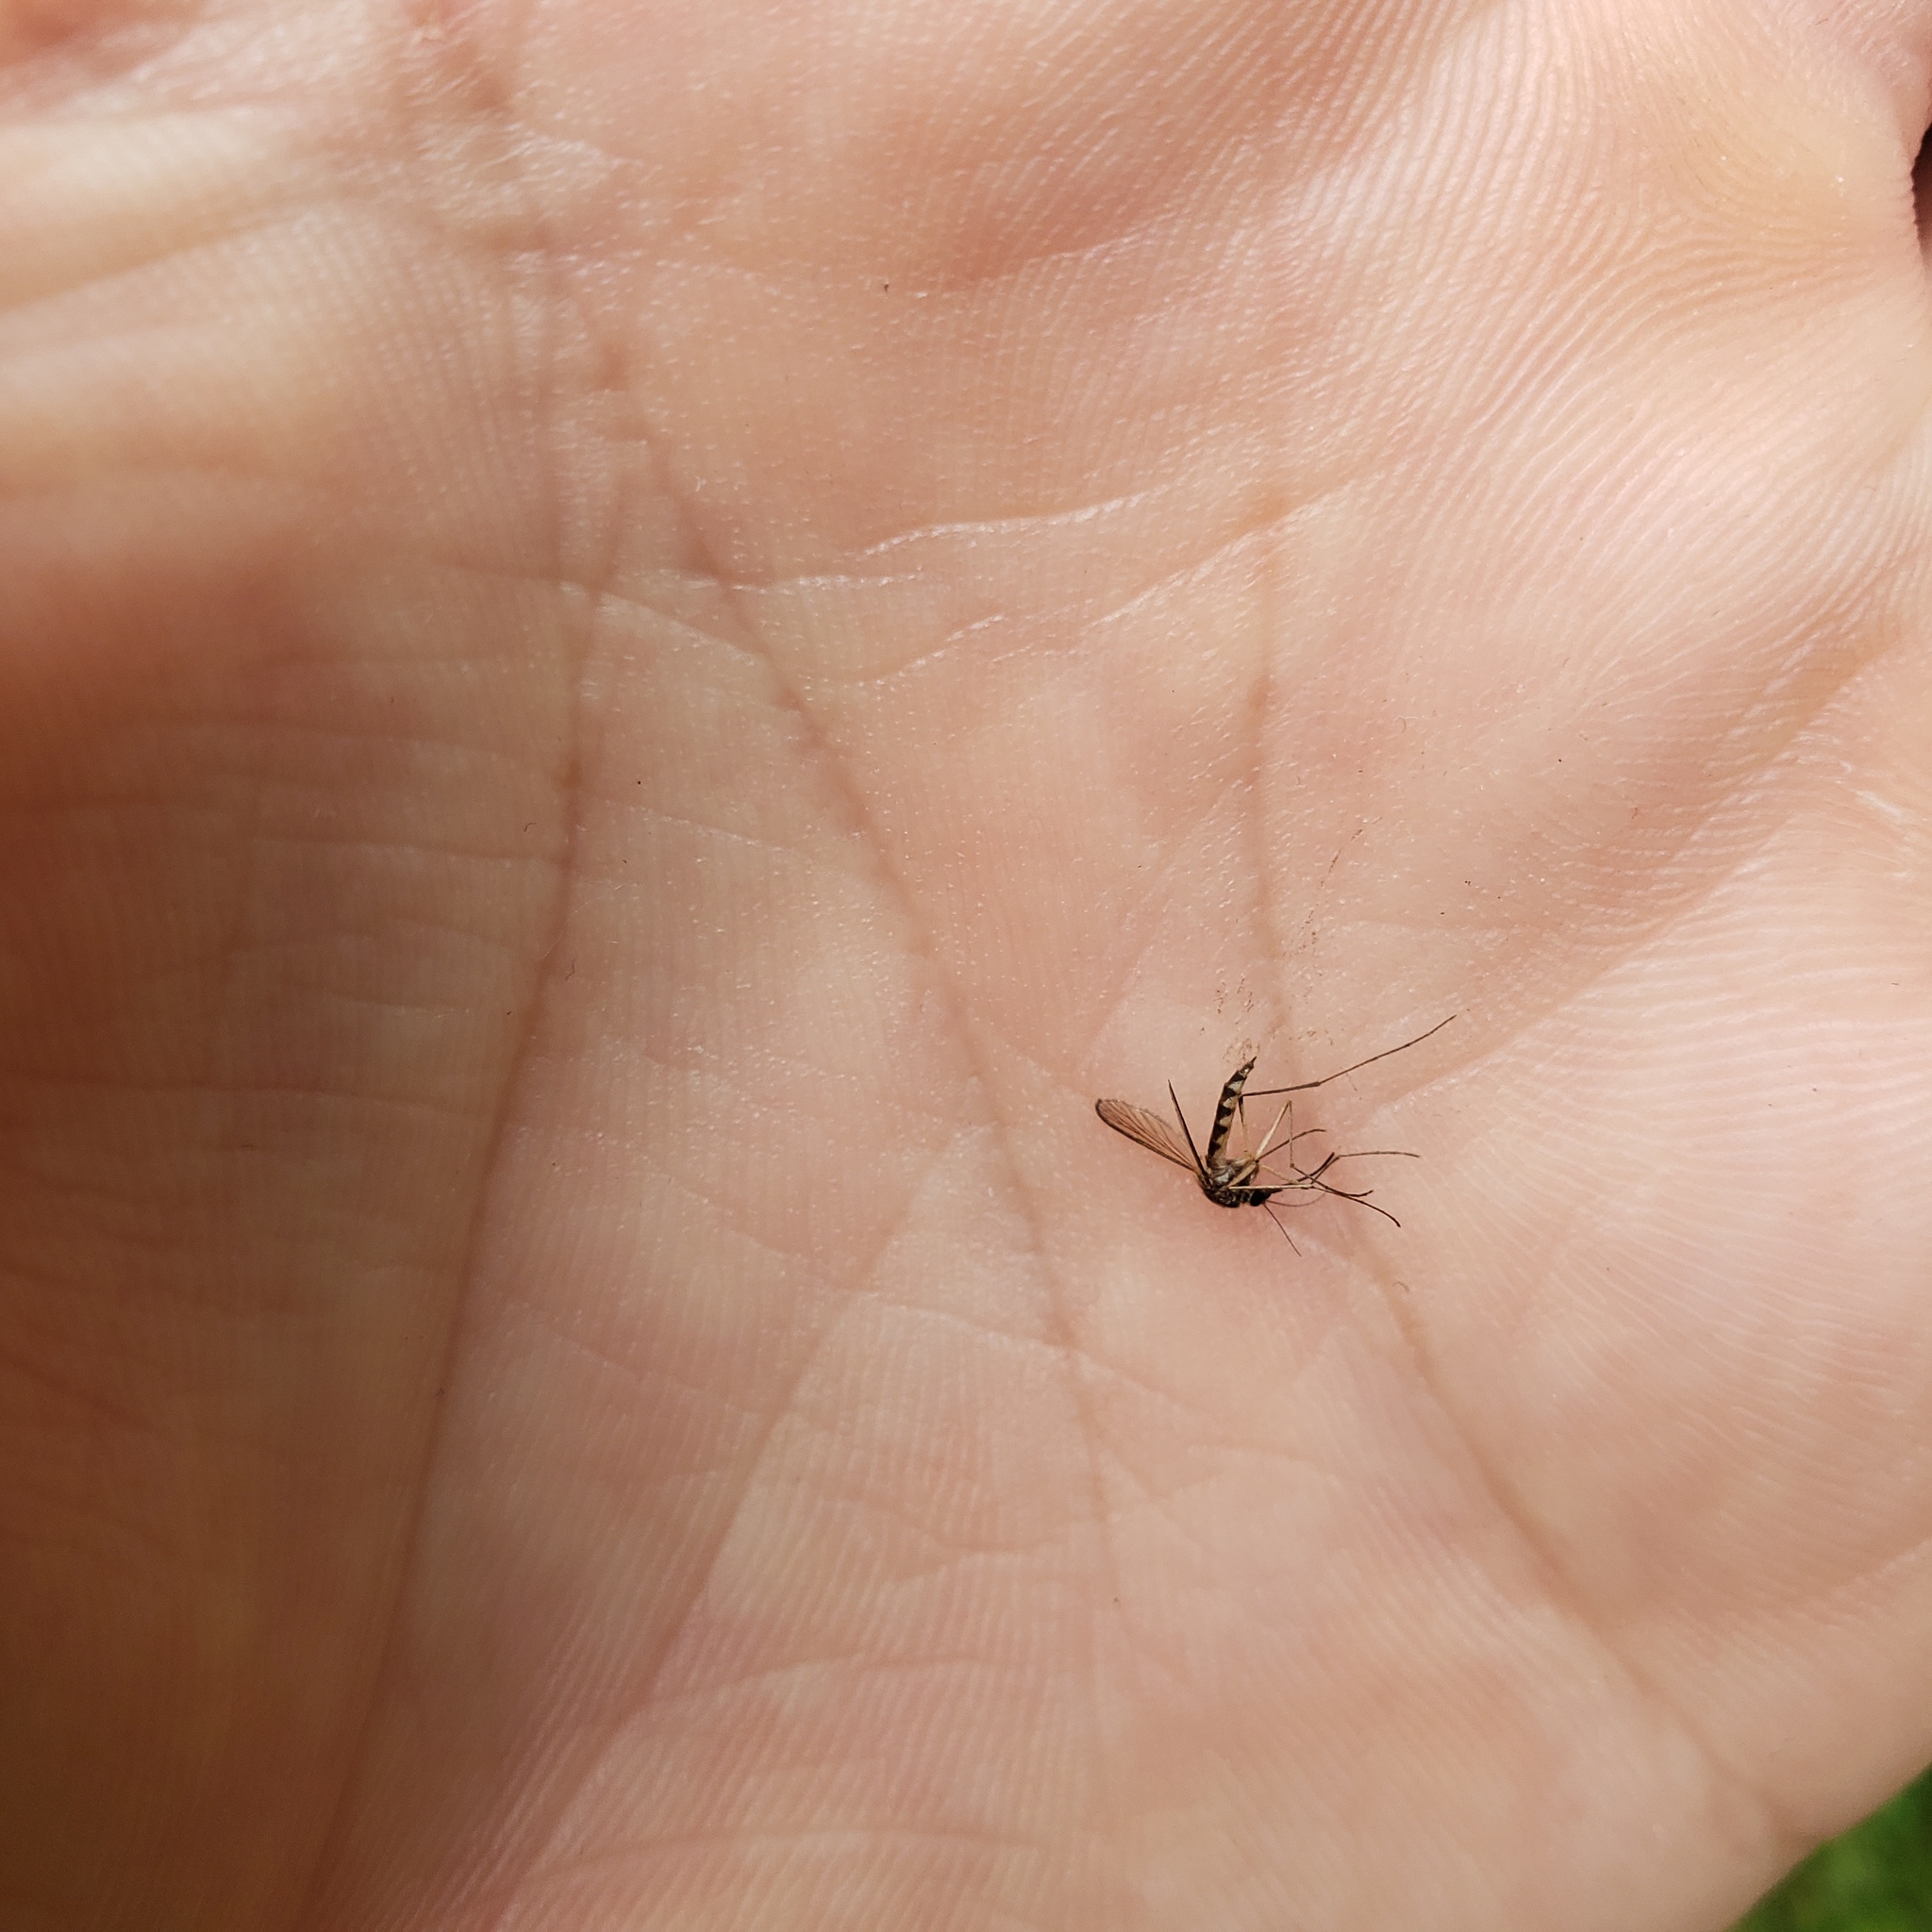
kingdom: Animalia
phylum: Arthropoda
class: Insecta
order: Diptera
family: Culicidae
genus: Aedes
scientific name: Aedes trivittatus
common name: Plains floodwater mosquito
